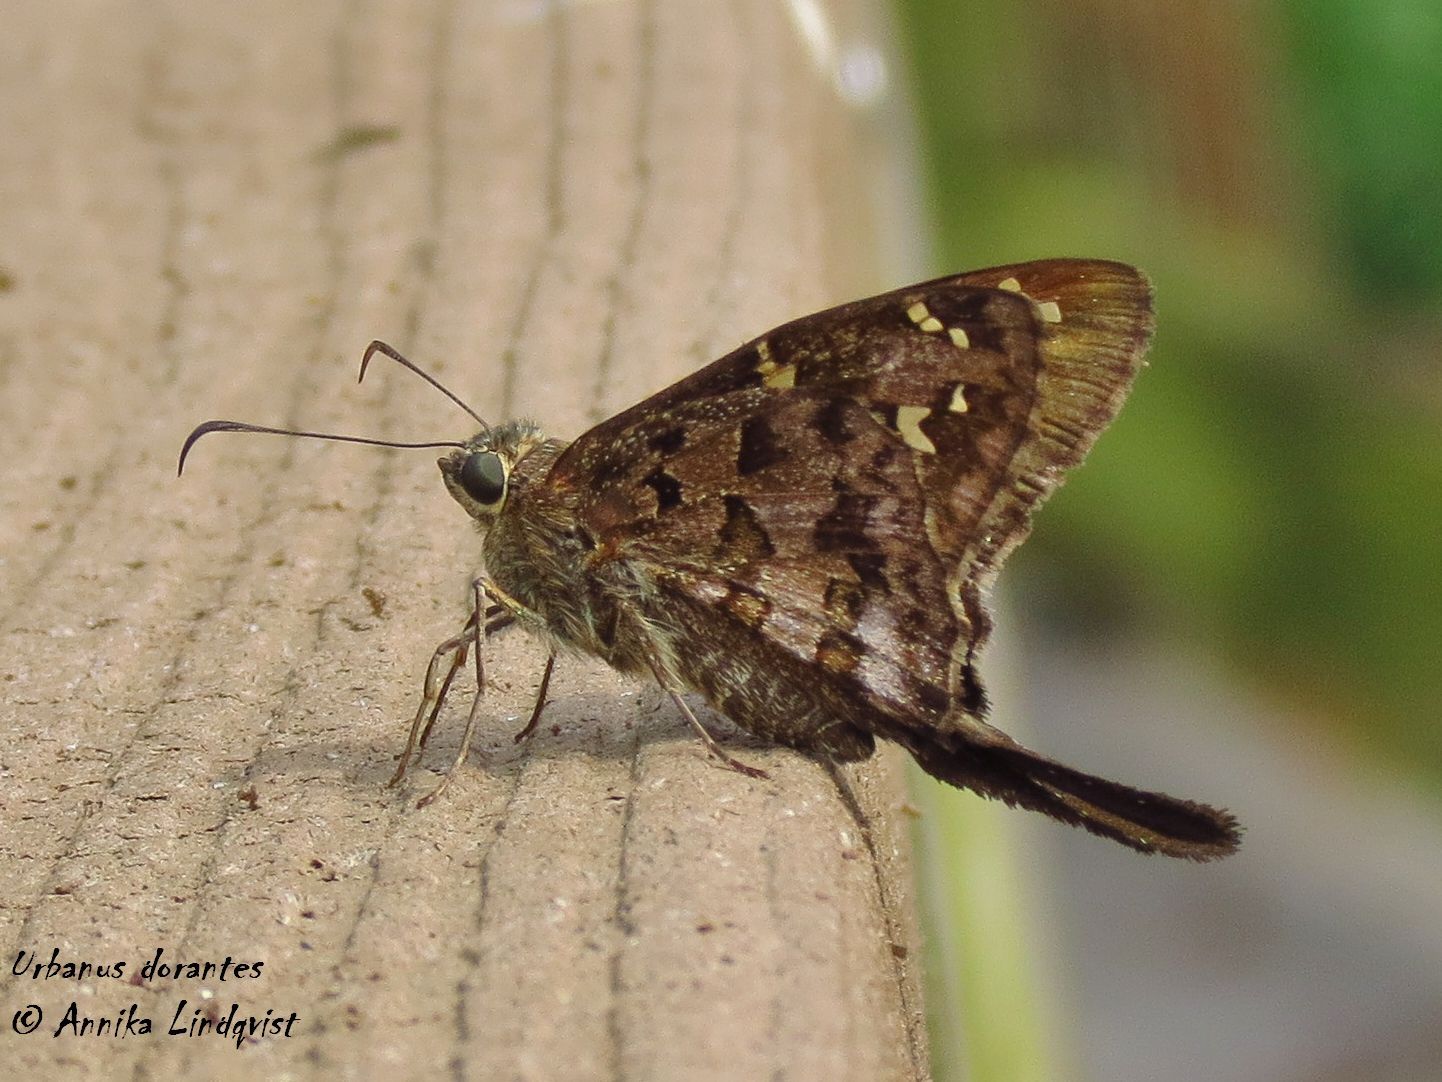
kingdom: Animalia
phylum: Arthropoda
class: Insecta
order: Lepidoptera
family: Hesperiidae
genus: Thorybes
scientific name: Thorybes
